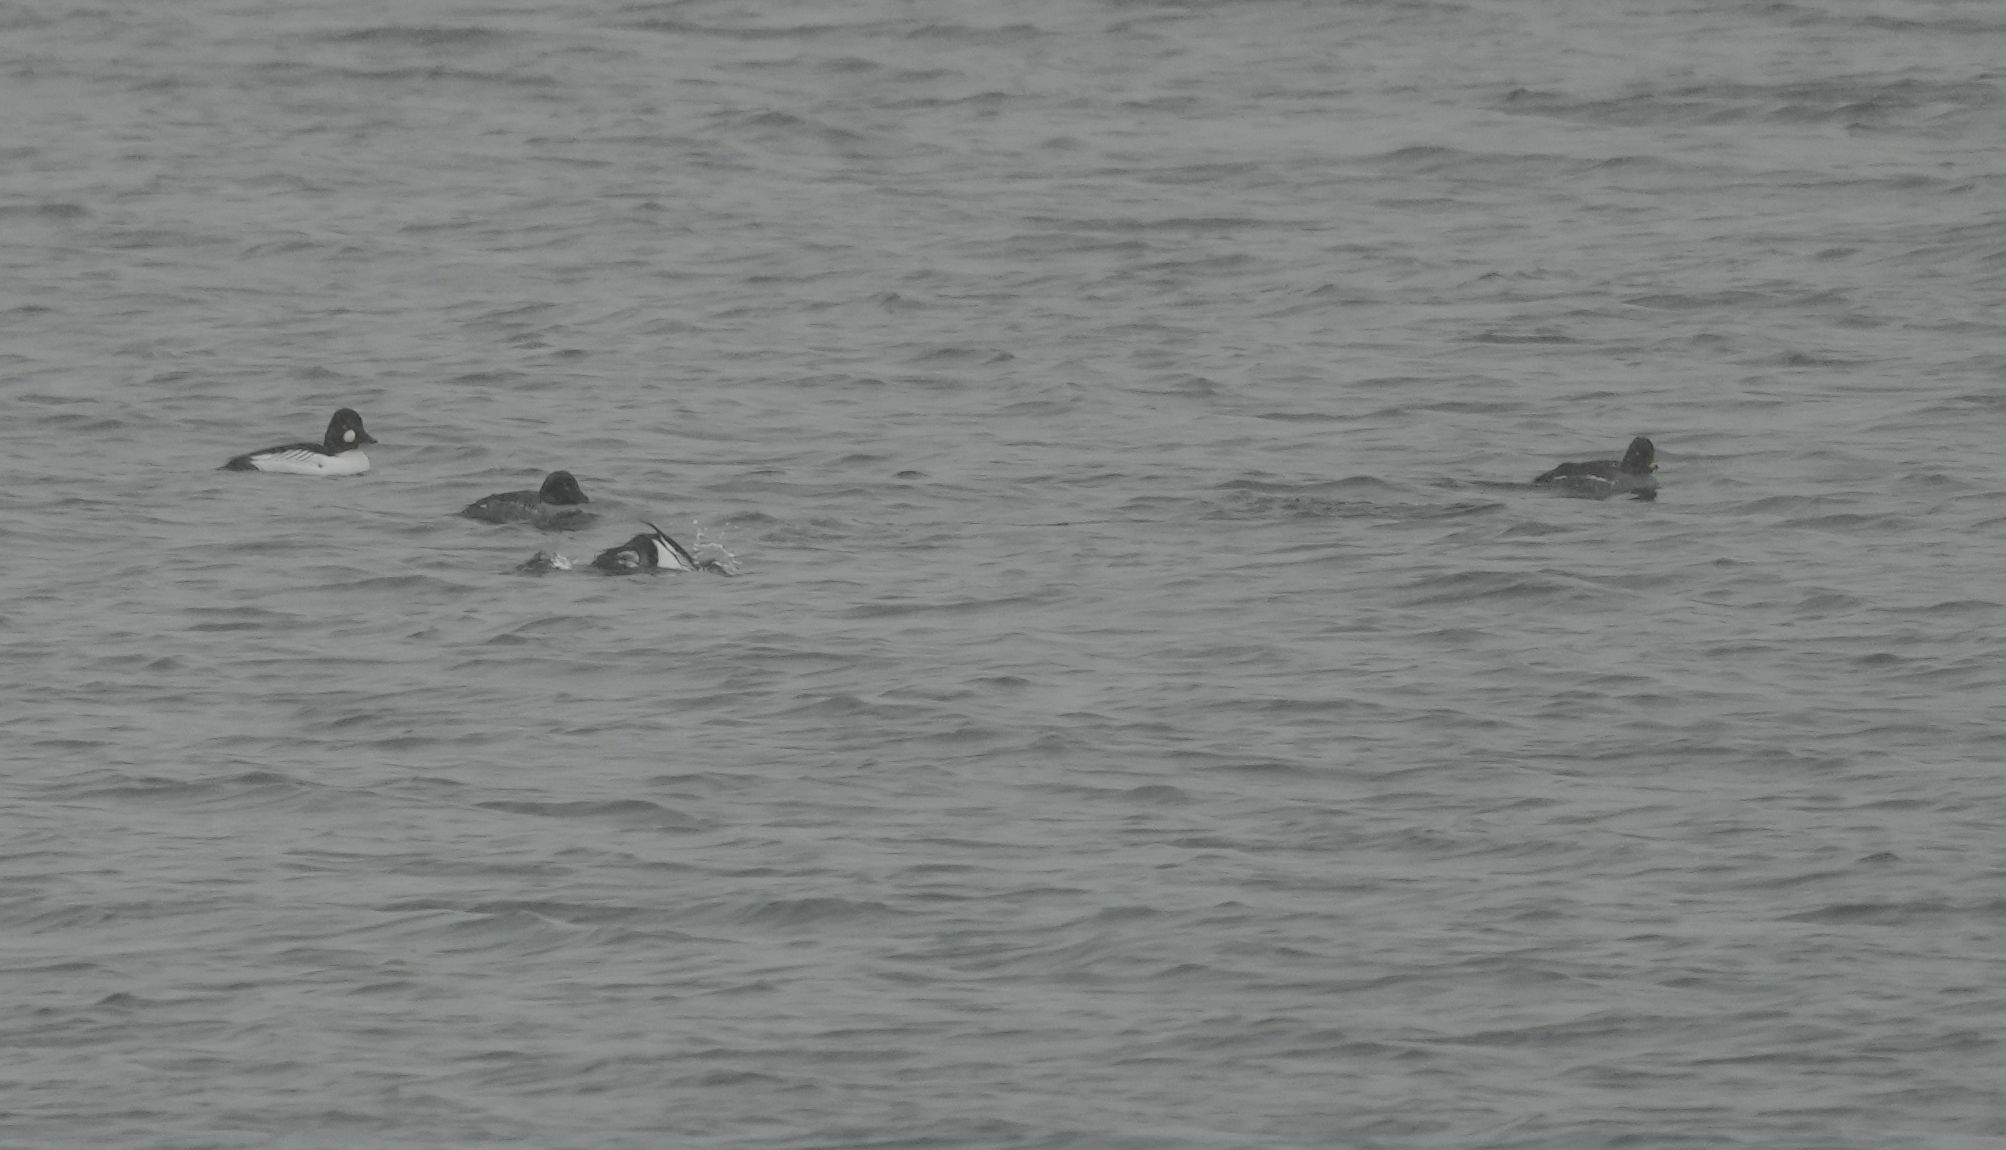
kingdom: Animalia
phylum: Chordata
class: Aves
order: Anseriformes
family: Anatidae
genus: Bucephala
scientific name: Bucephala clangula
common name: Common goldeneye
